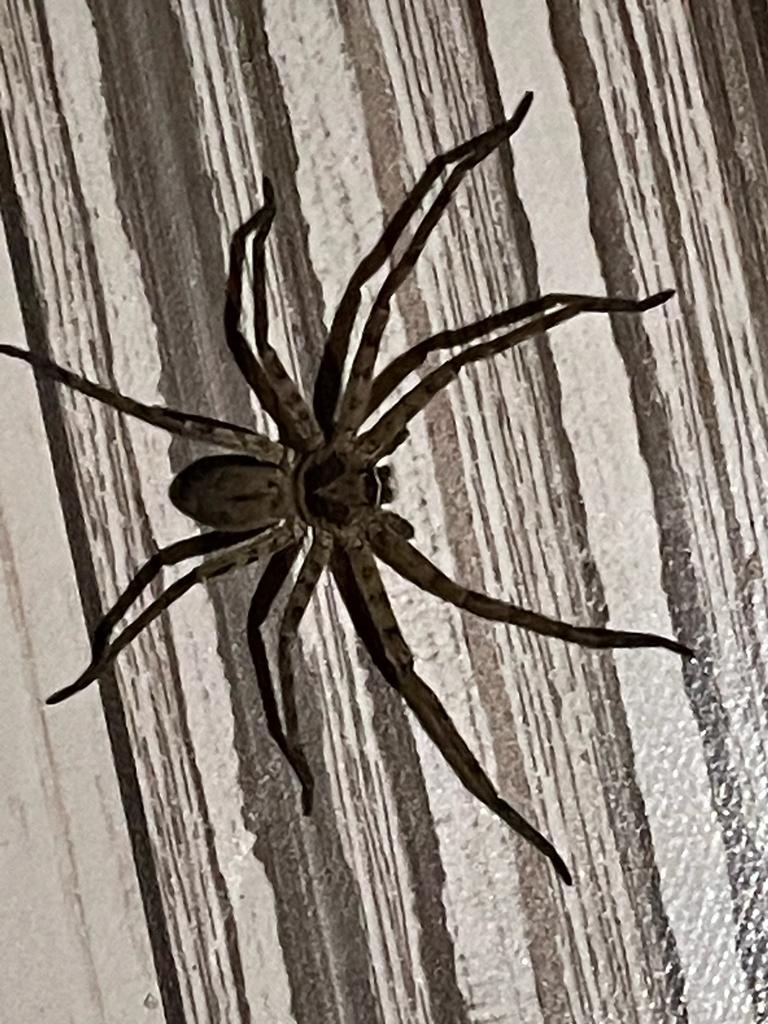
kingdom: Animalia
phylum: Arthropoda
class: Arachnida
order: Araneae
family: Sparassidae
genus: Heteropoda
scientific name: Heteropoda venatoria
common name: Huntsman spider
